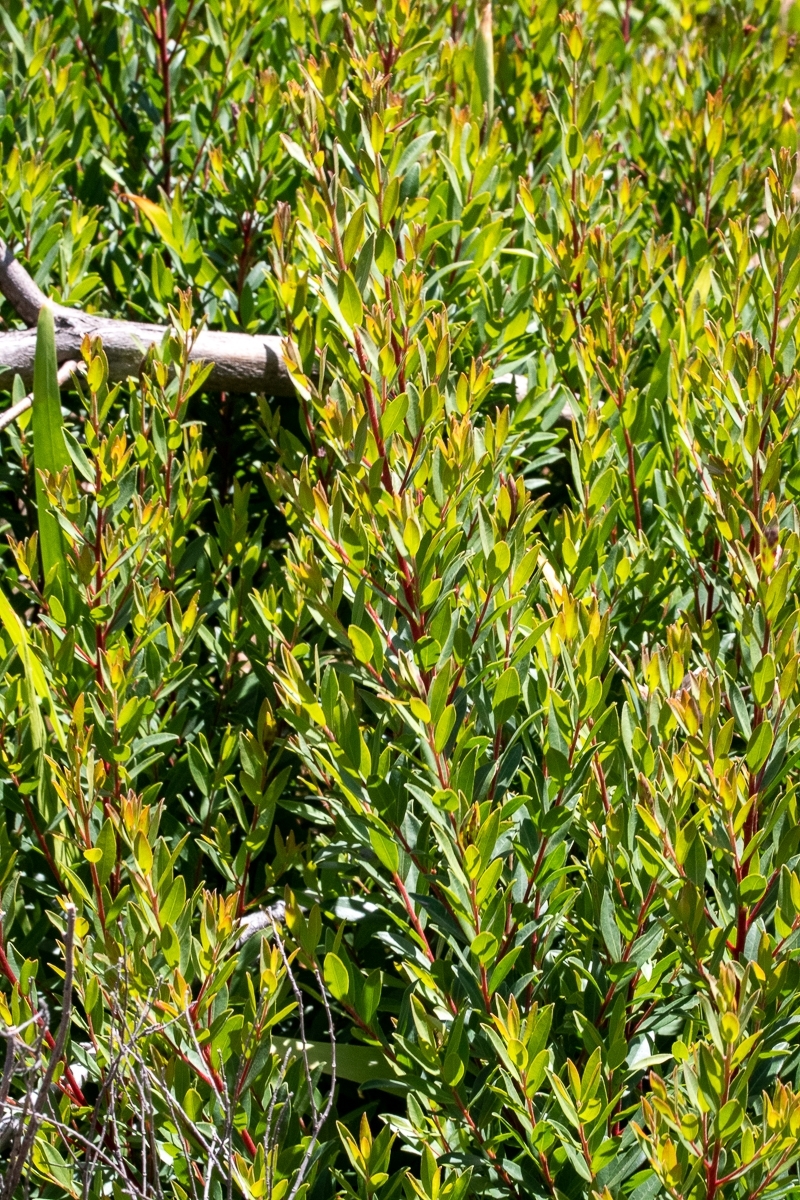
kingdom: Plantae
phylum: Tracheophyta
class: Magnoliopsida
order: Ericales
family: Ebenaceae
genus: Diospyros
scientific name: Diospyros glabra
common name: Fynbos star apple
